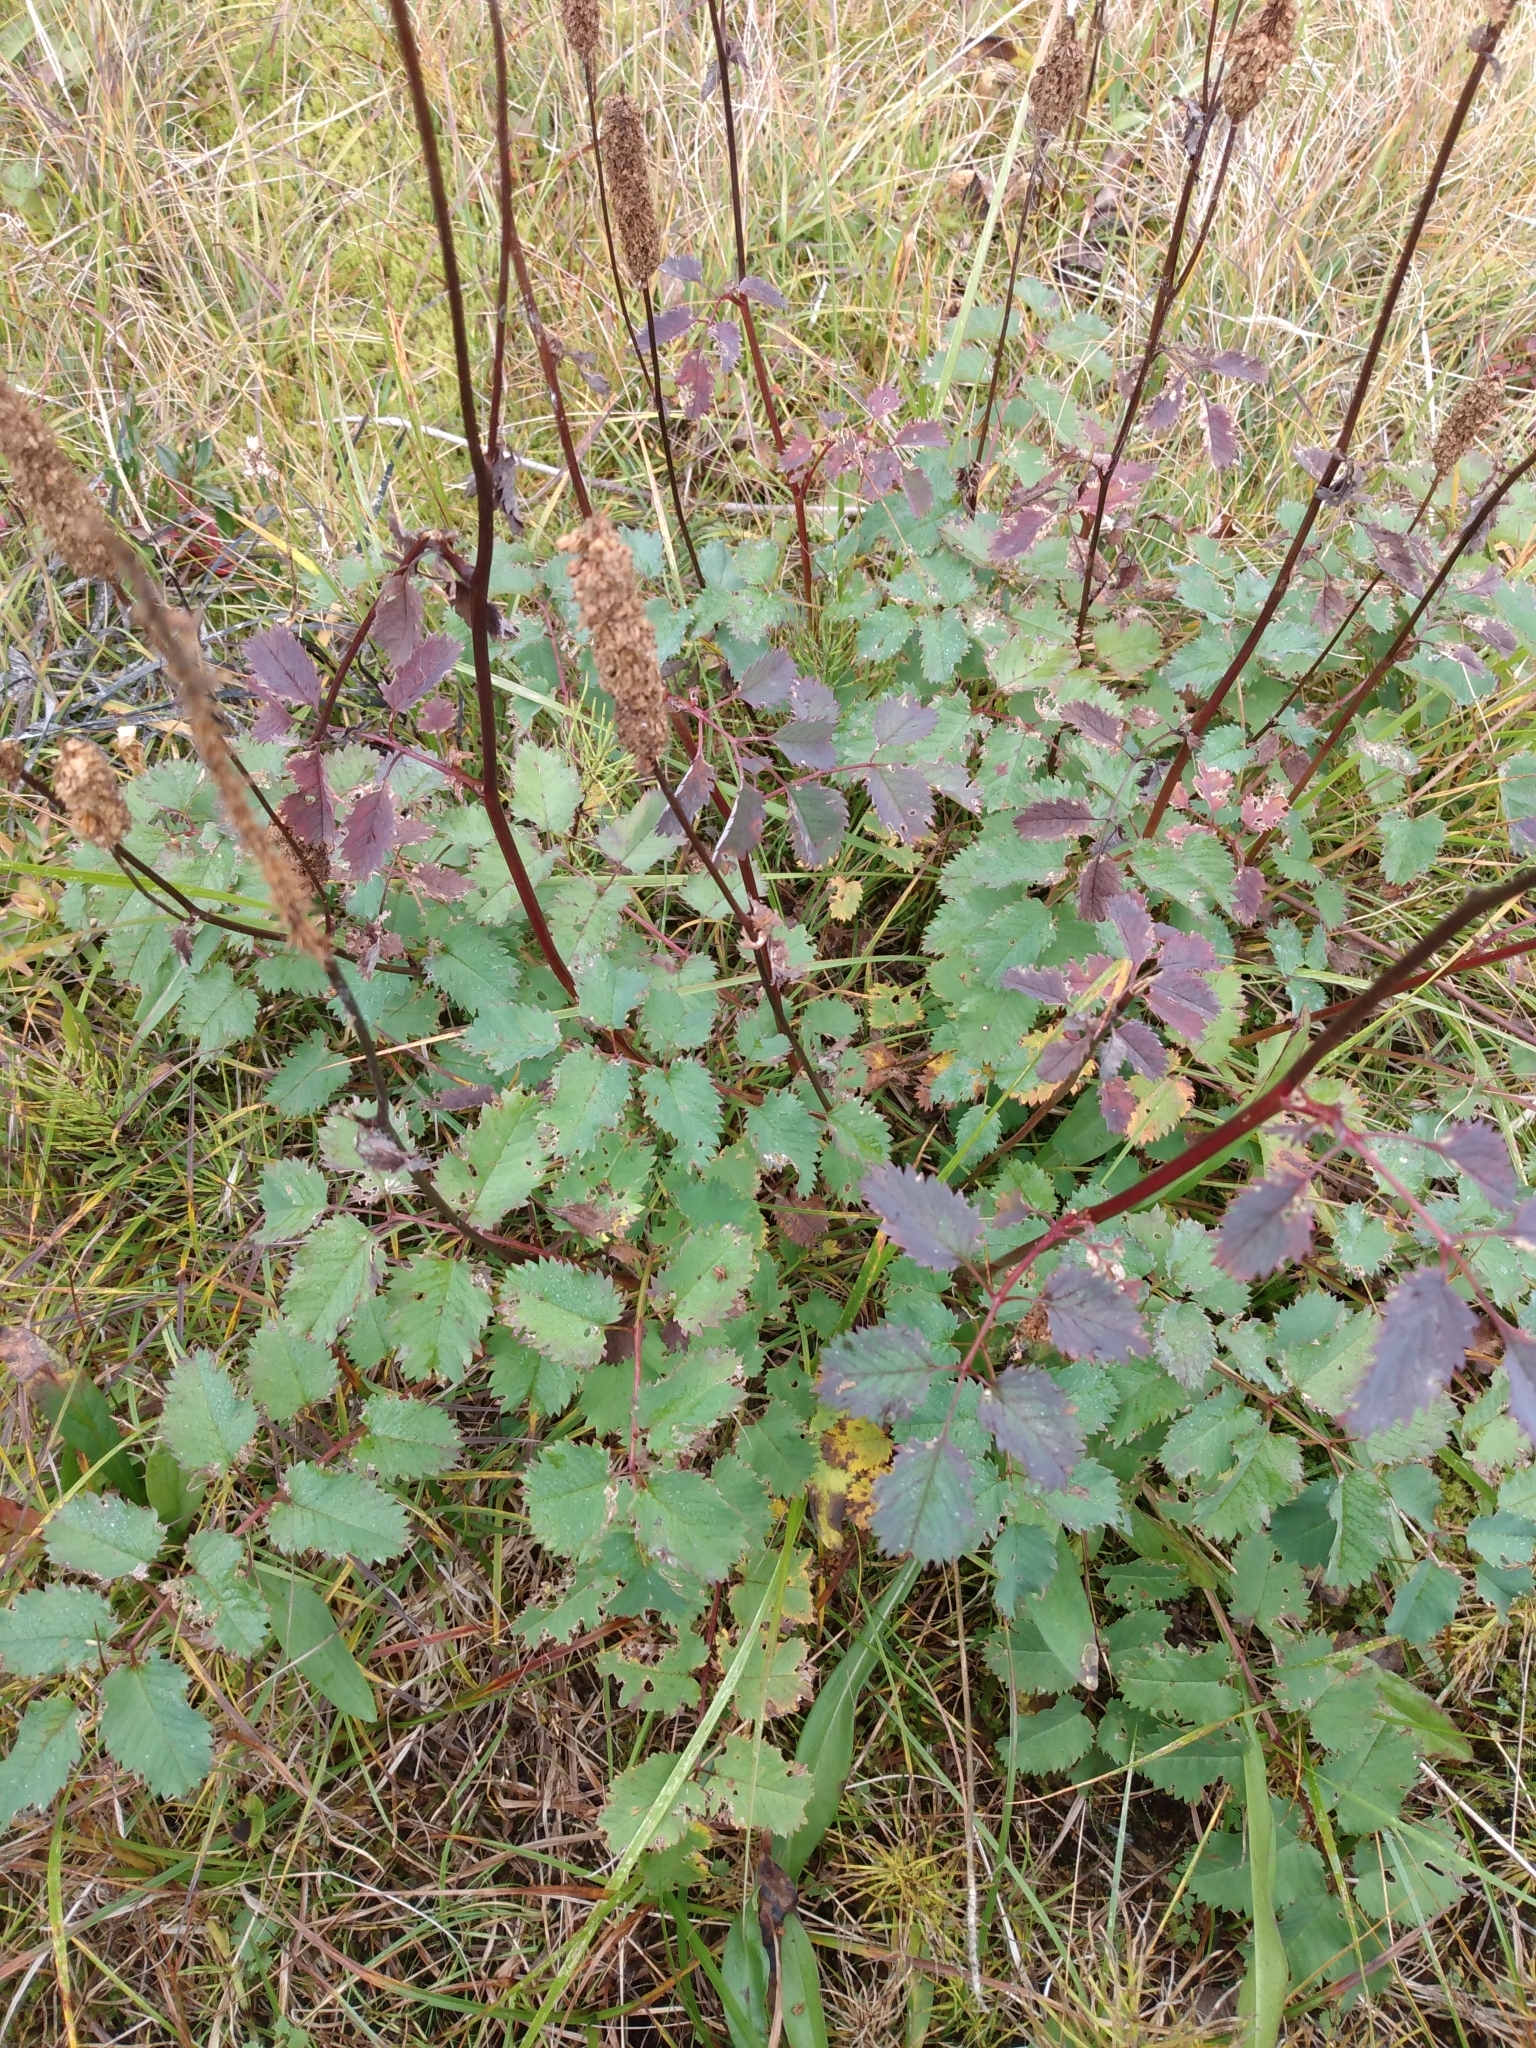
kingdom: Plantae
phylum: Tracheophyta
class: Magnoliopsida
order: Rosales
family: Rosaceae
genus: Sanguisorba
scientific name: Sanguisorba officinalis
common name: Great burnet
